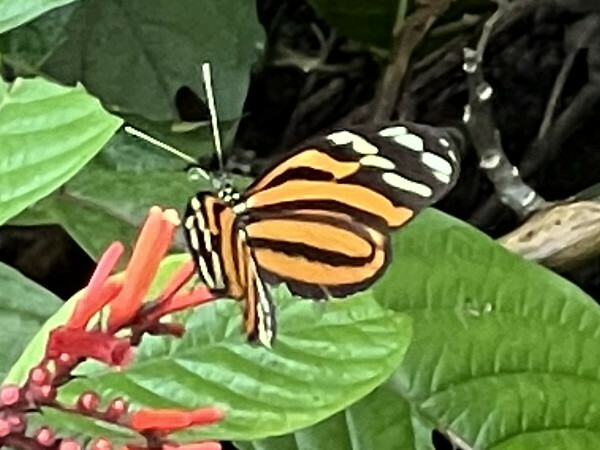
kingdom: Animalia
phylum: Arthropoda
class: Insecta
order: Lepidoptera
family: Nymphalidae
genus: Heliconius
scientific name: Heliconius ismenius
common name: Ismenius tiger
